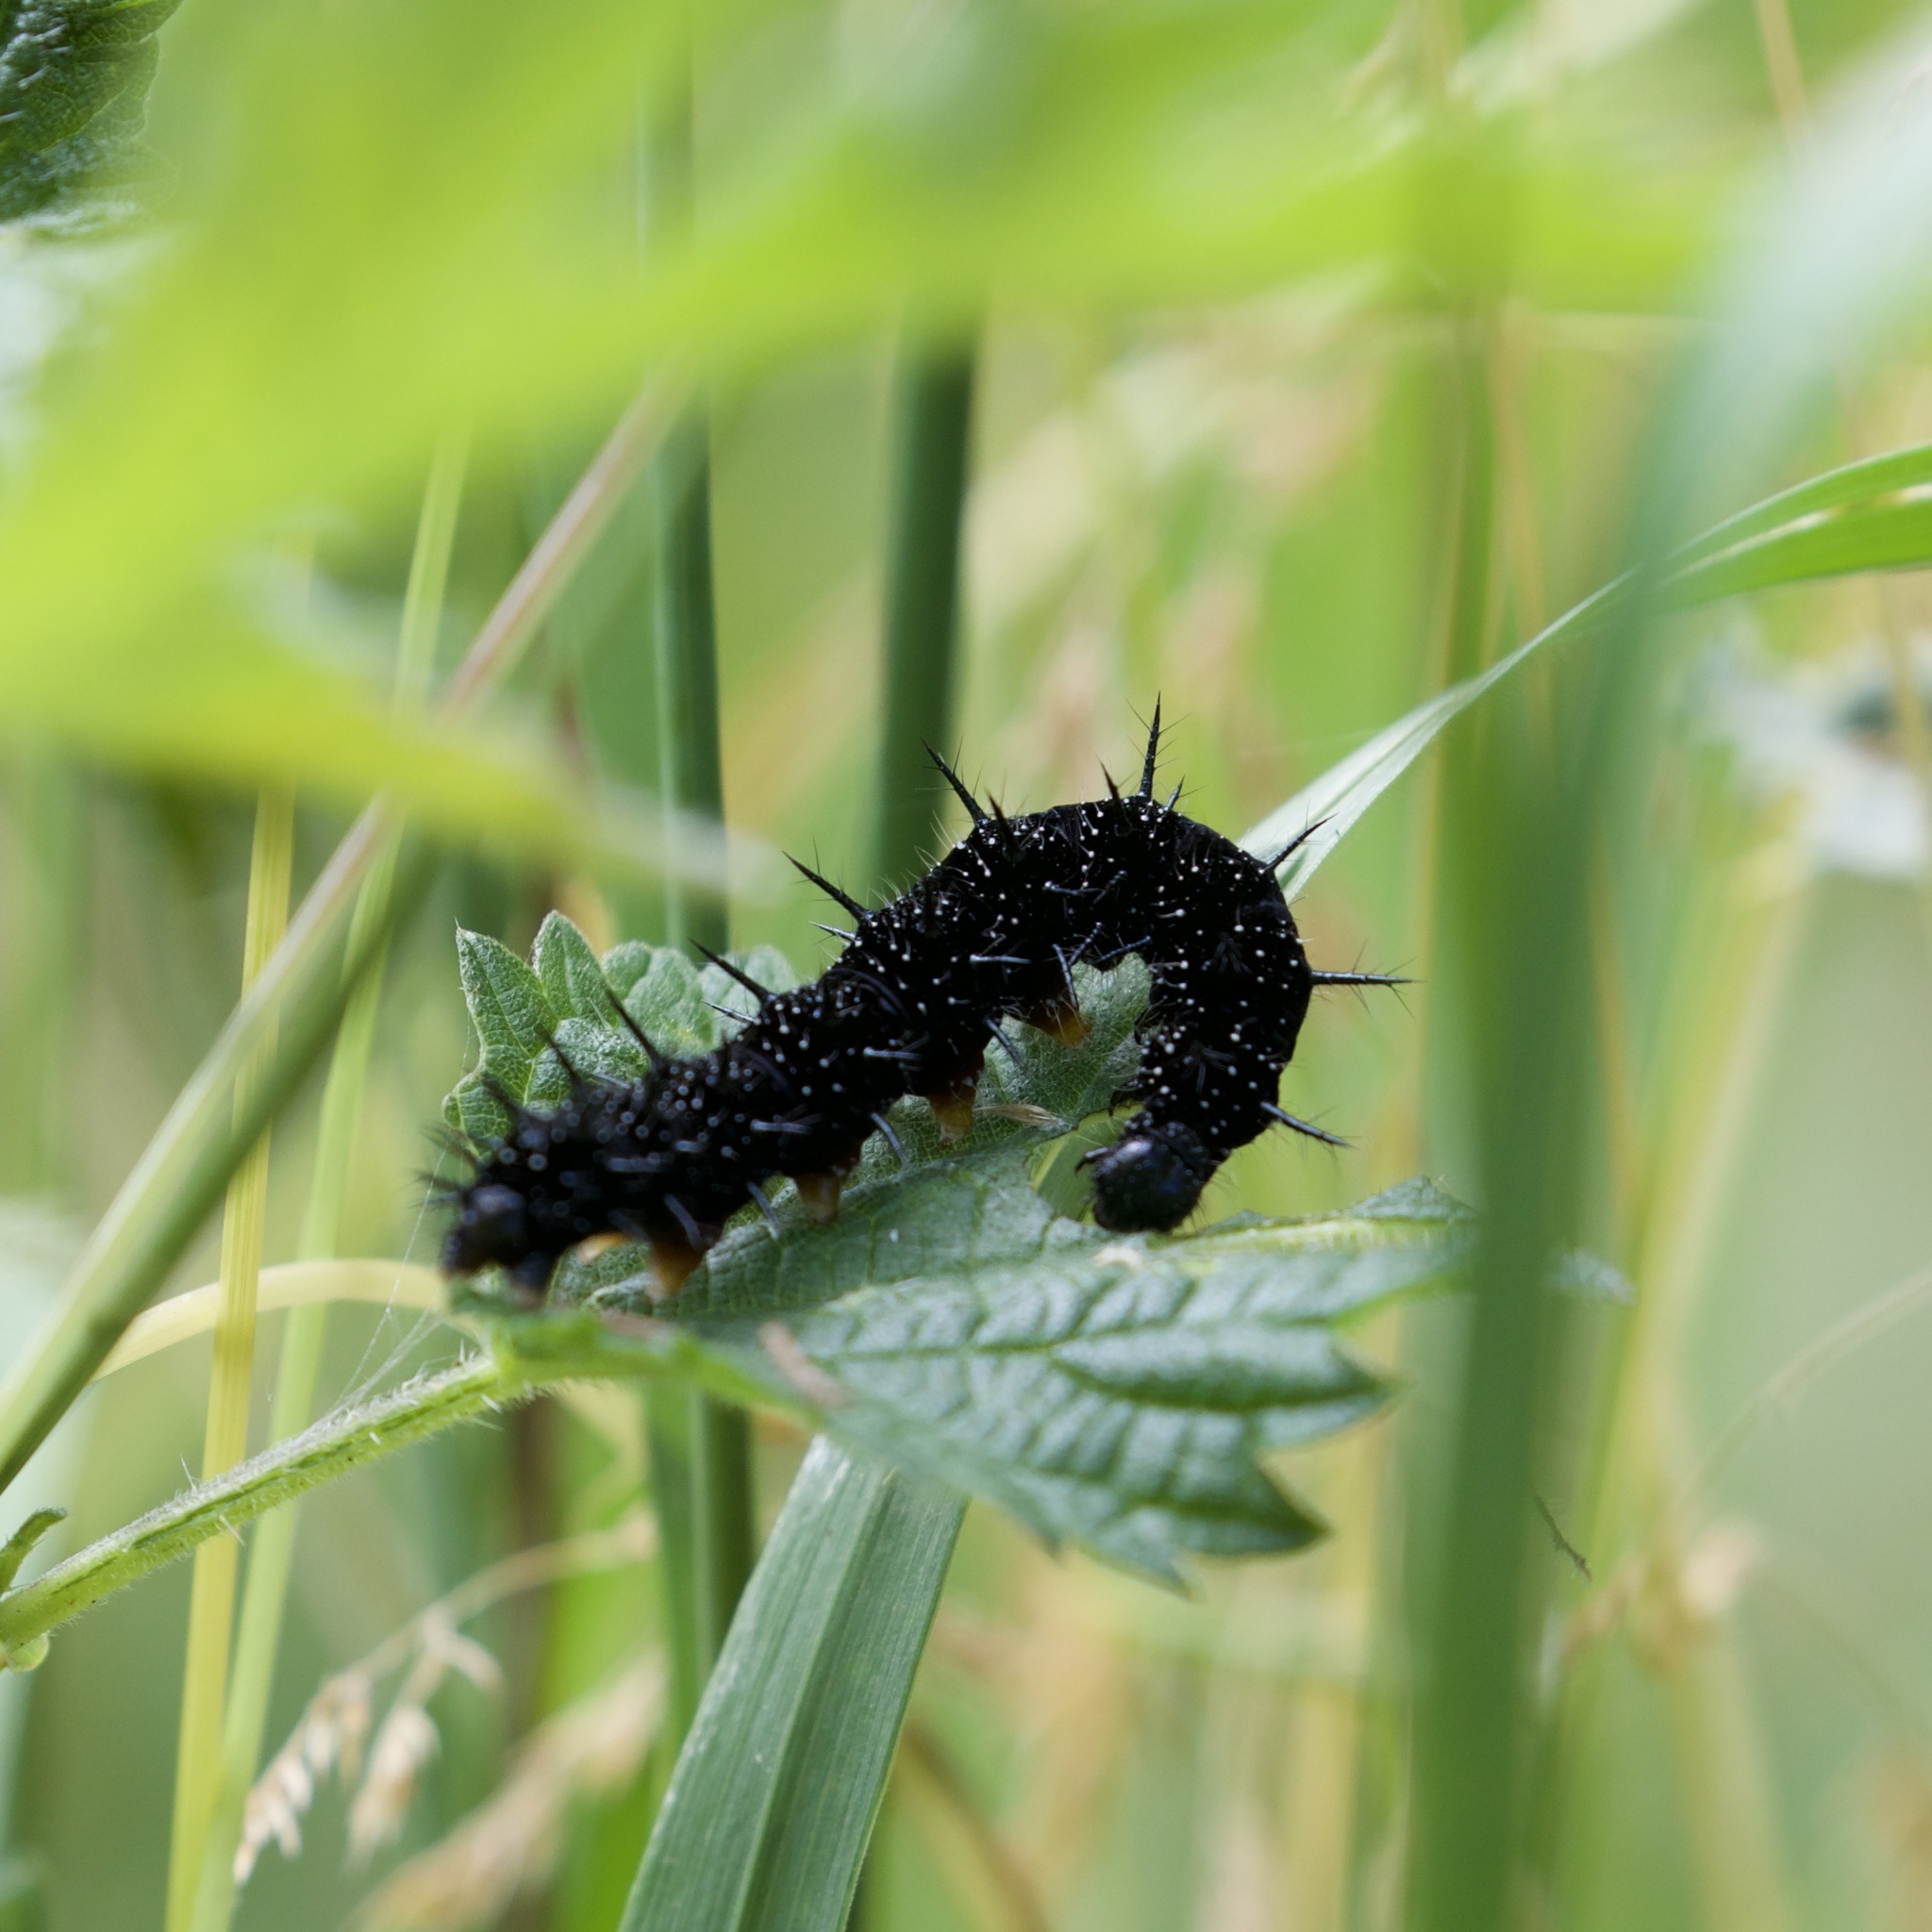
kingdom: Animalia
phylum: Arthropoda
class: Insecta
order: Lepidoptera
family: Nymphalidae
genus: Aglais
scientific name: Aglais io
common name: Peacock
